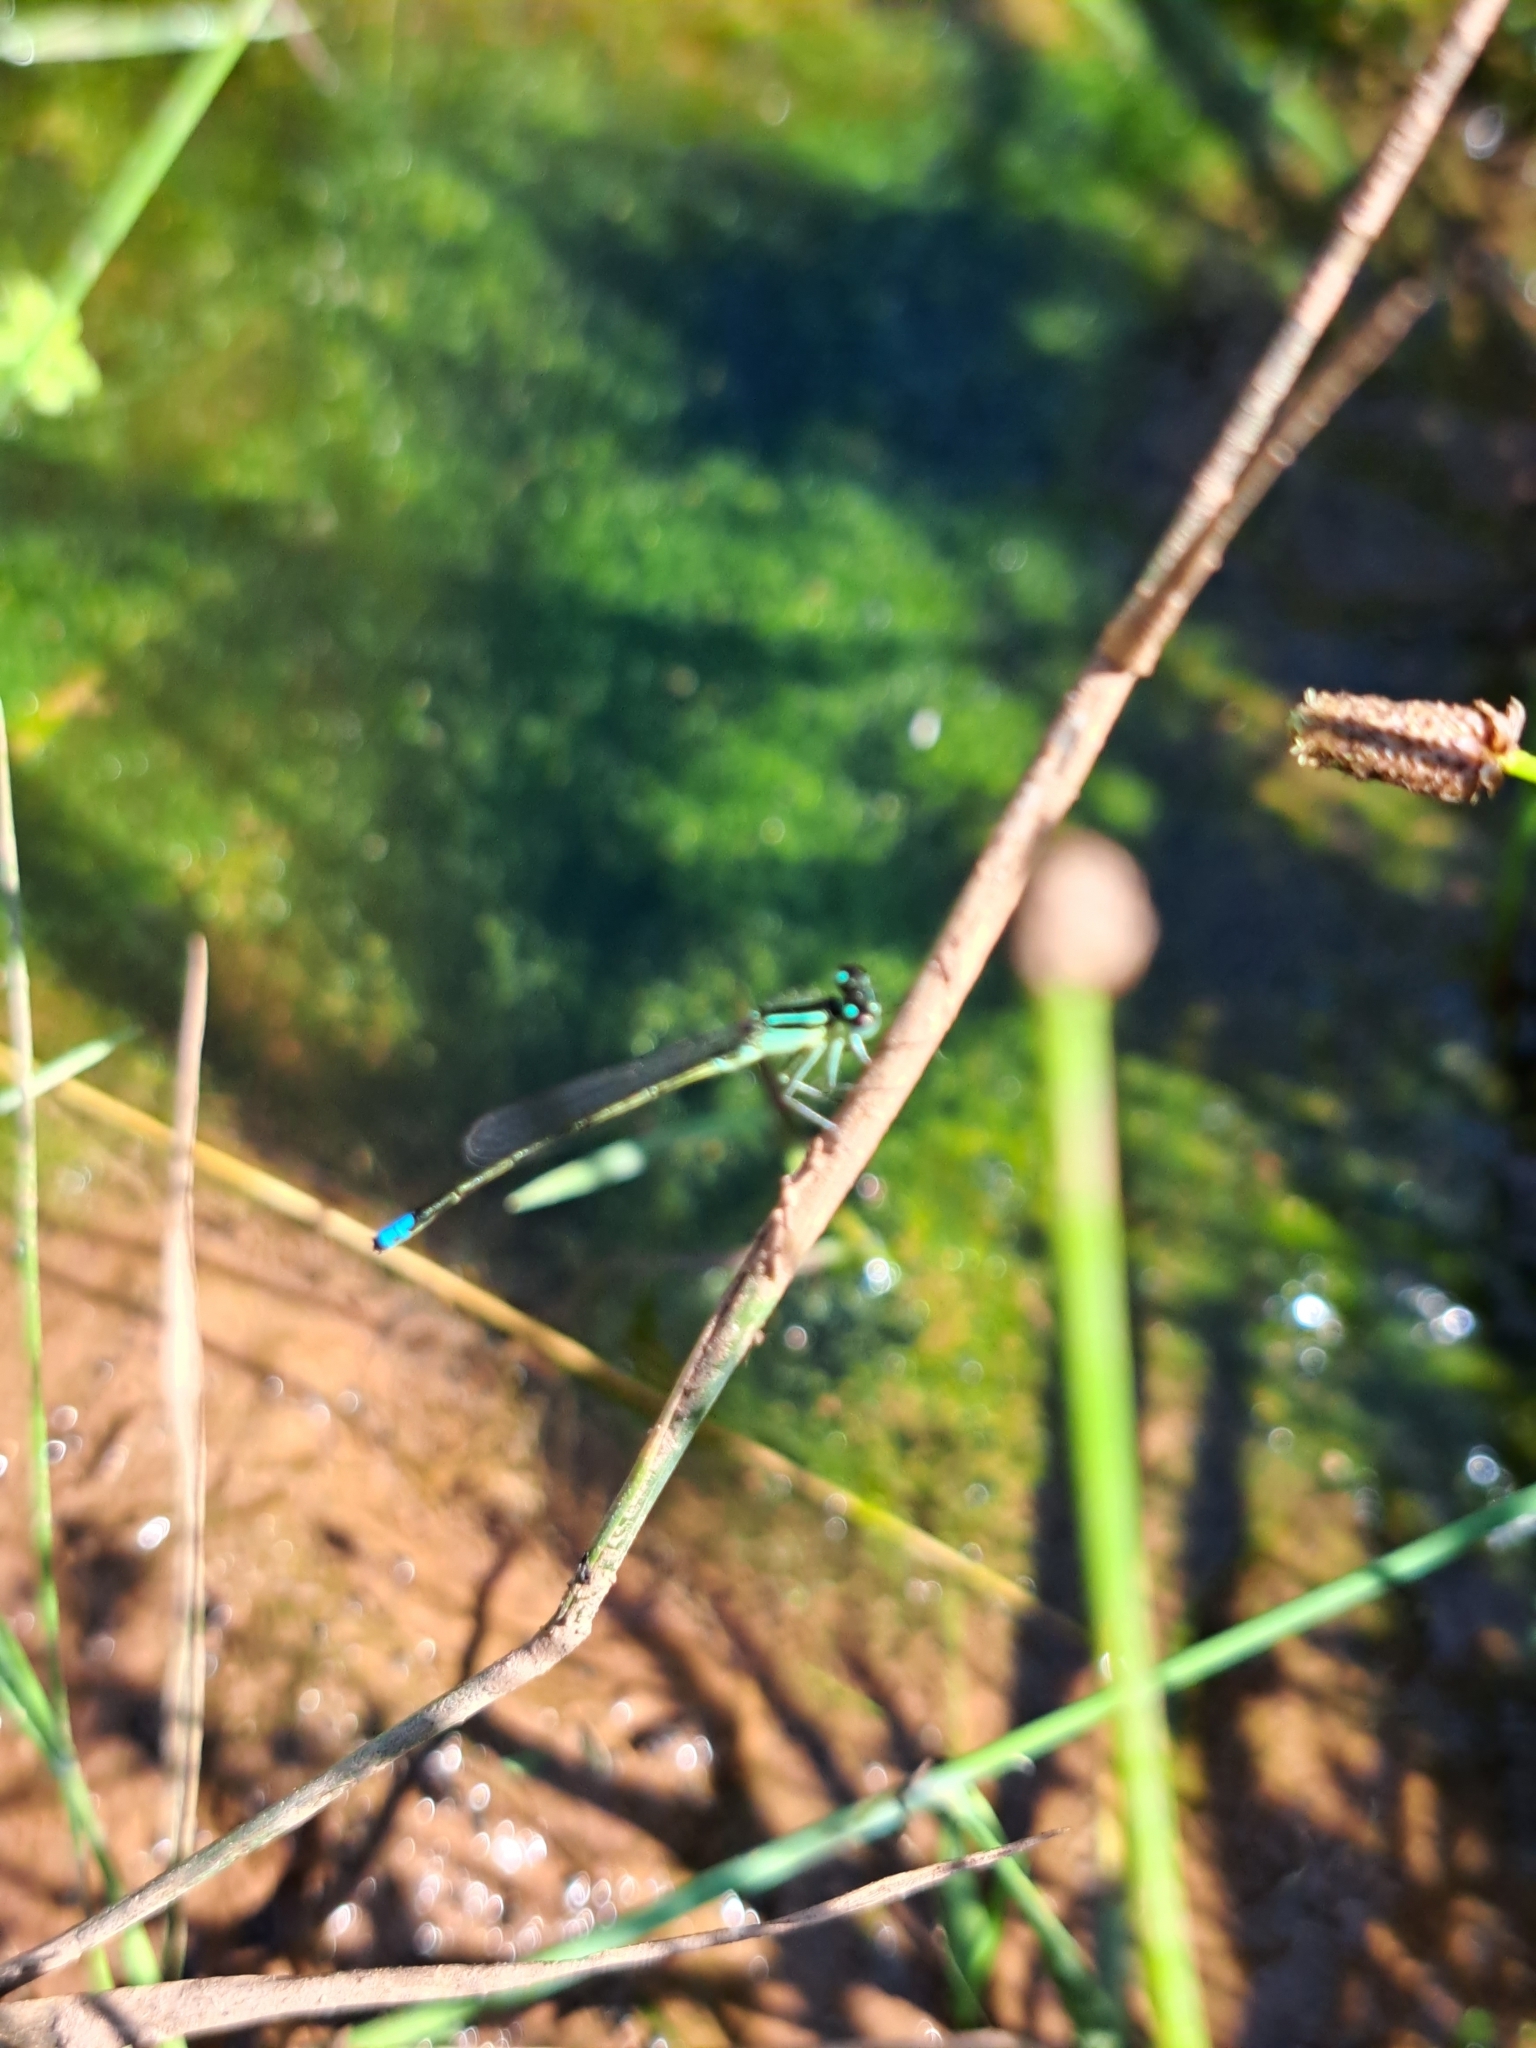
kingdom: Animalia
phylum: Arthropoda
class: Insecta
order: Odonata
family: Coenagrionidae
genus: Ischnura
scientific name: Ischnura verticalis
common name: Eastern forktail
